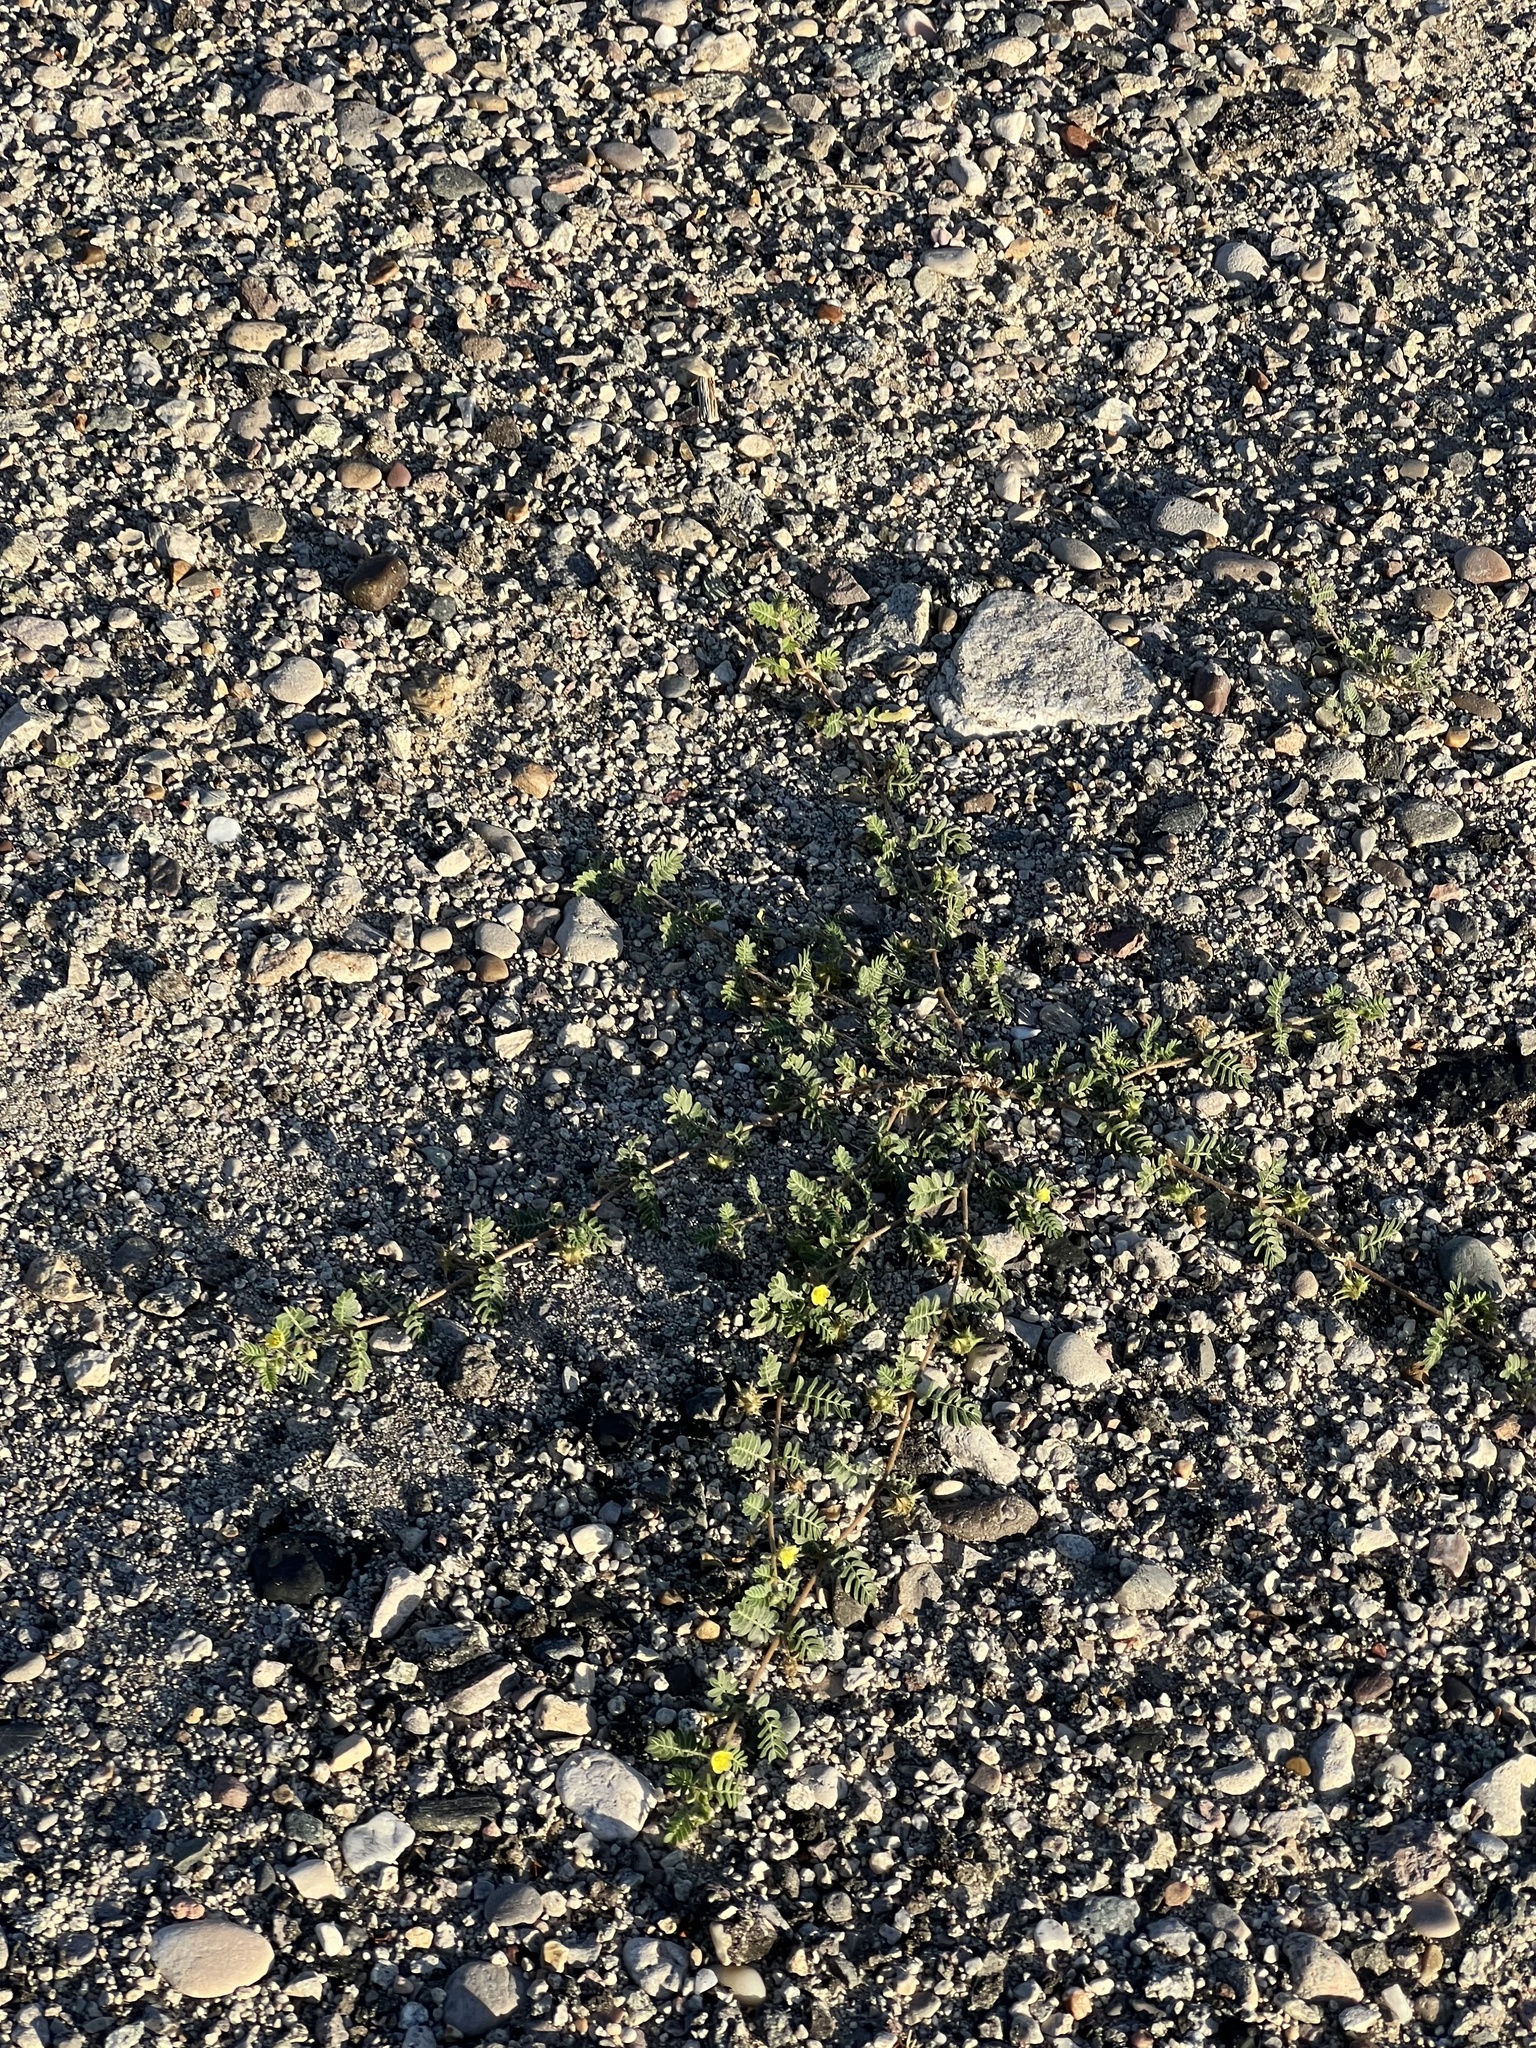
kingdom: Plantae
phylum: Tracheophyta
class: Magnoliopsida
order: Zygophyllales
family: Zygophyllaceae
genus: Tribulus
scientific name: Tribulus terrestris
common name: Puncturevine
